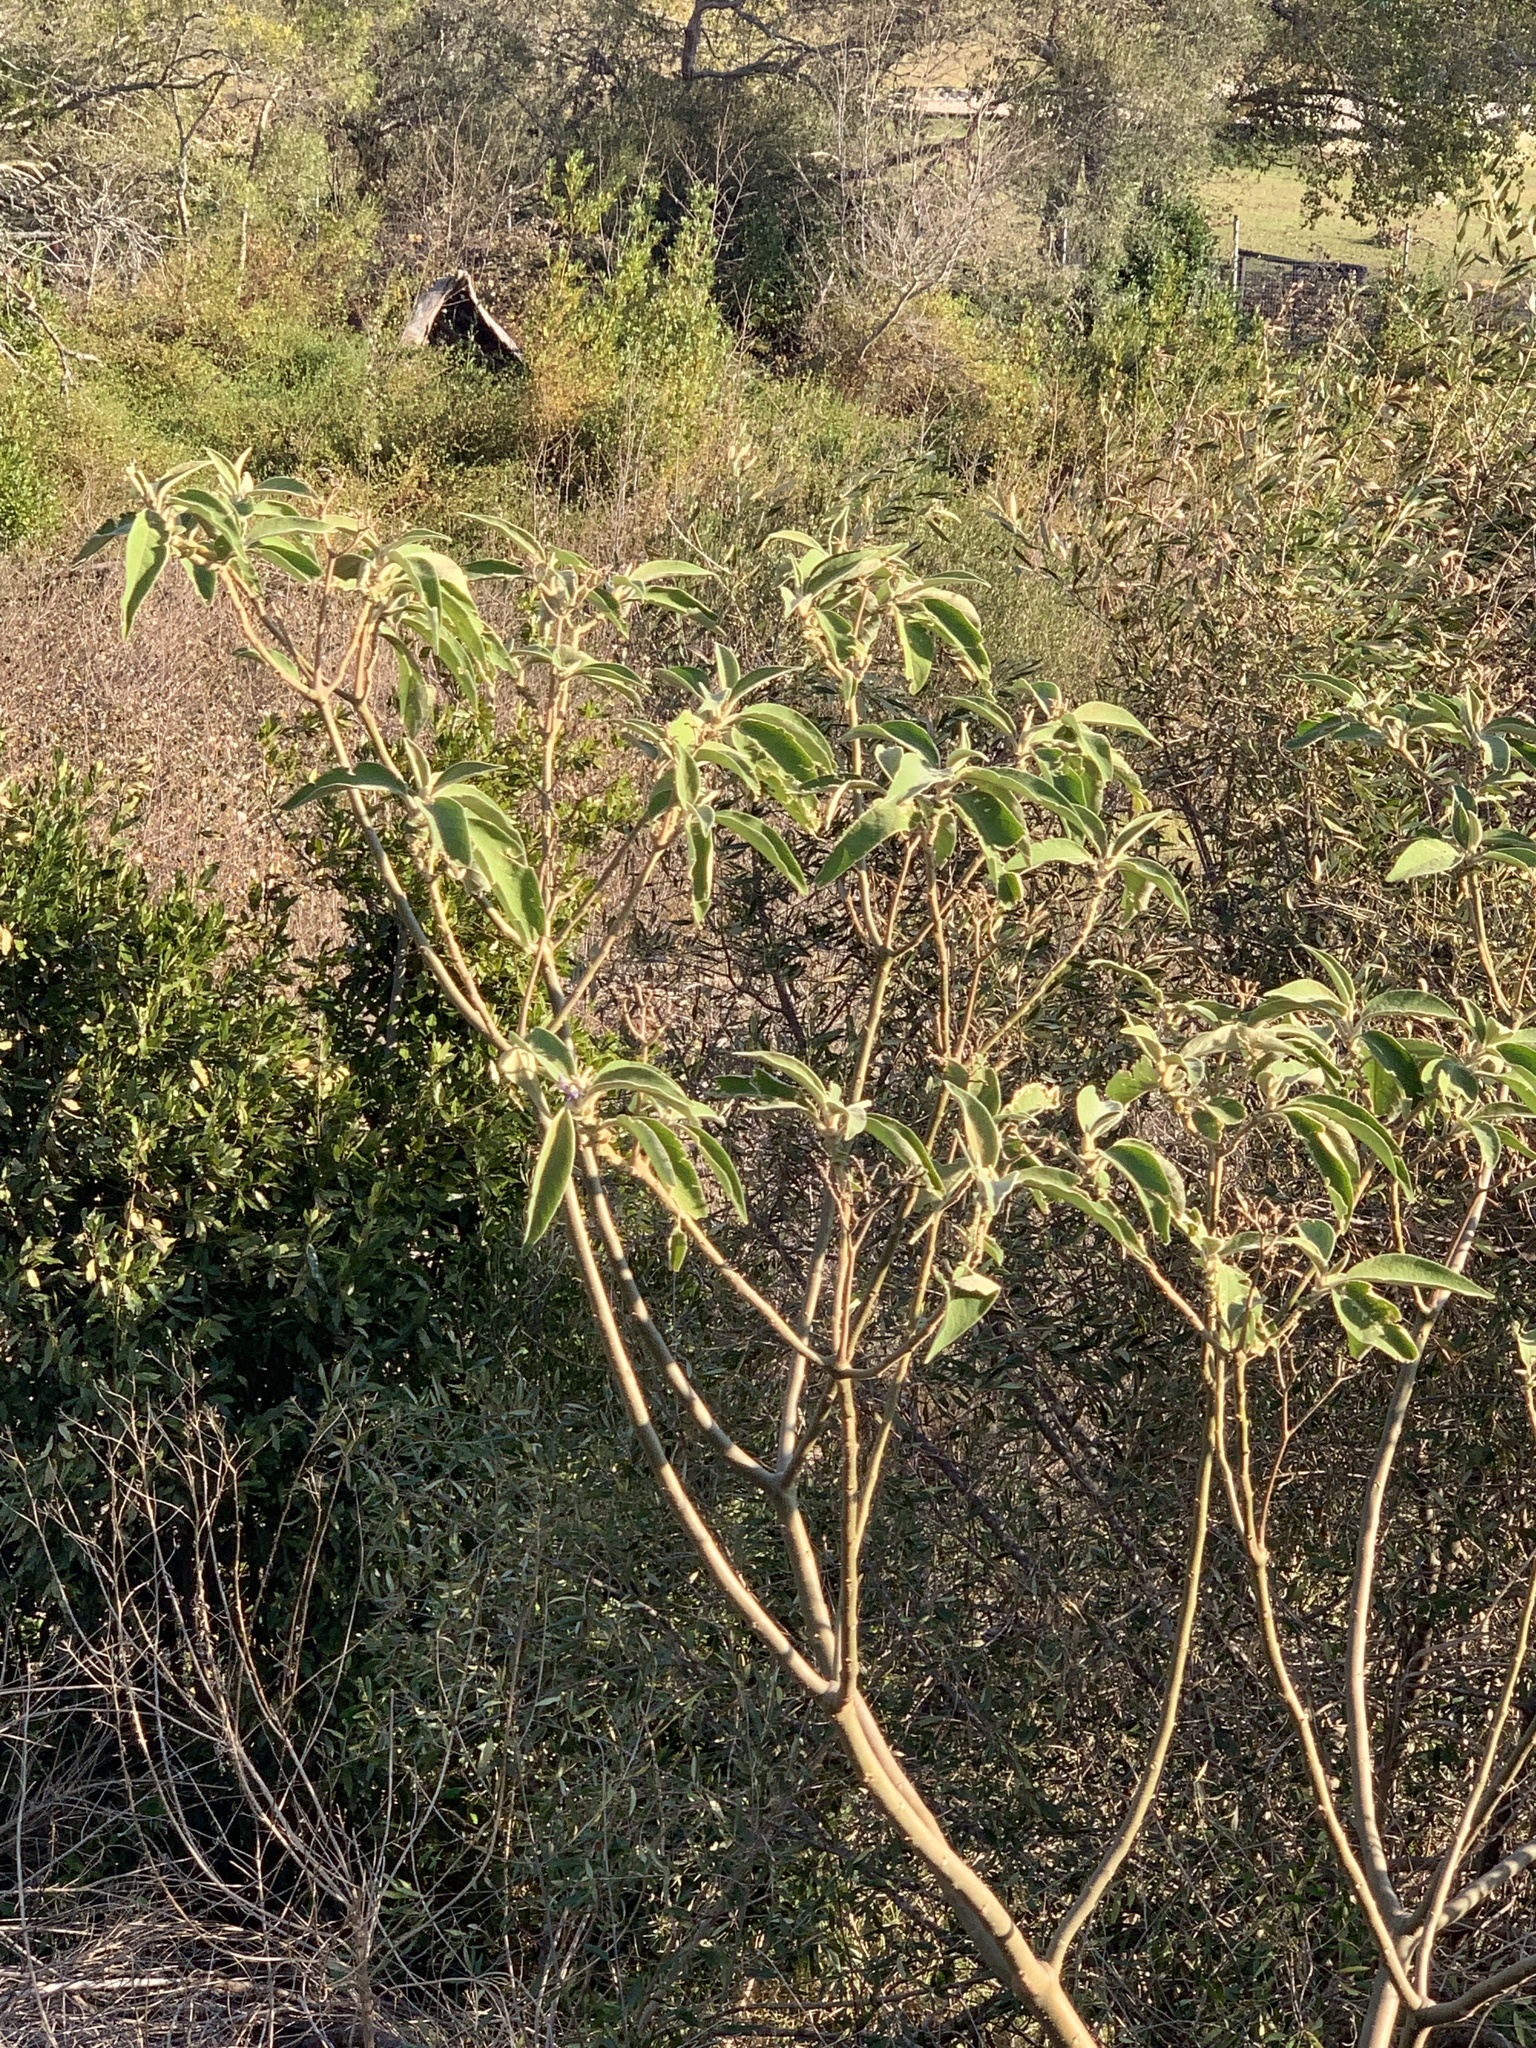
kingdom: Plantae
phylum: Tracheophyta
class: Magnoliopsida
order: Solanales
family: Solanaceae
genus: Solanum
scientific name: Solanum mauritianum
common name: Earleaf nightshade
